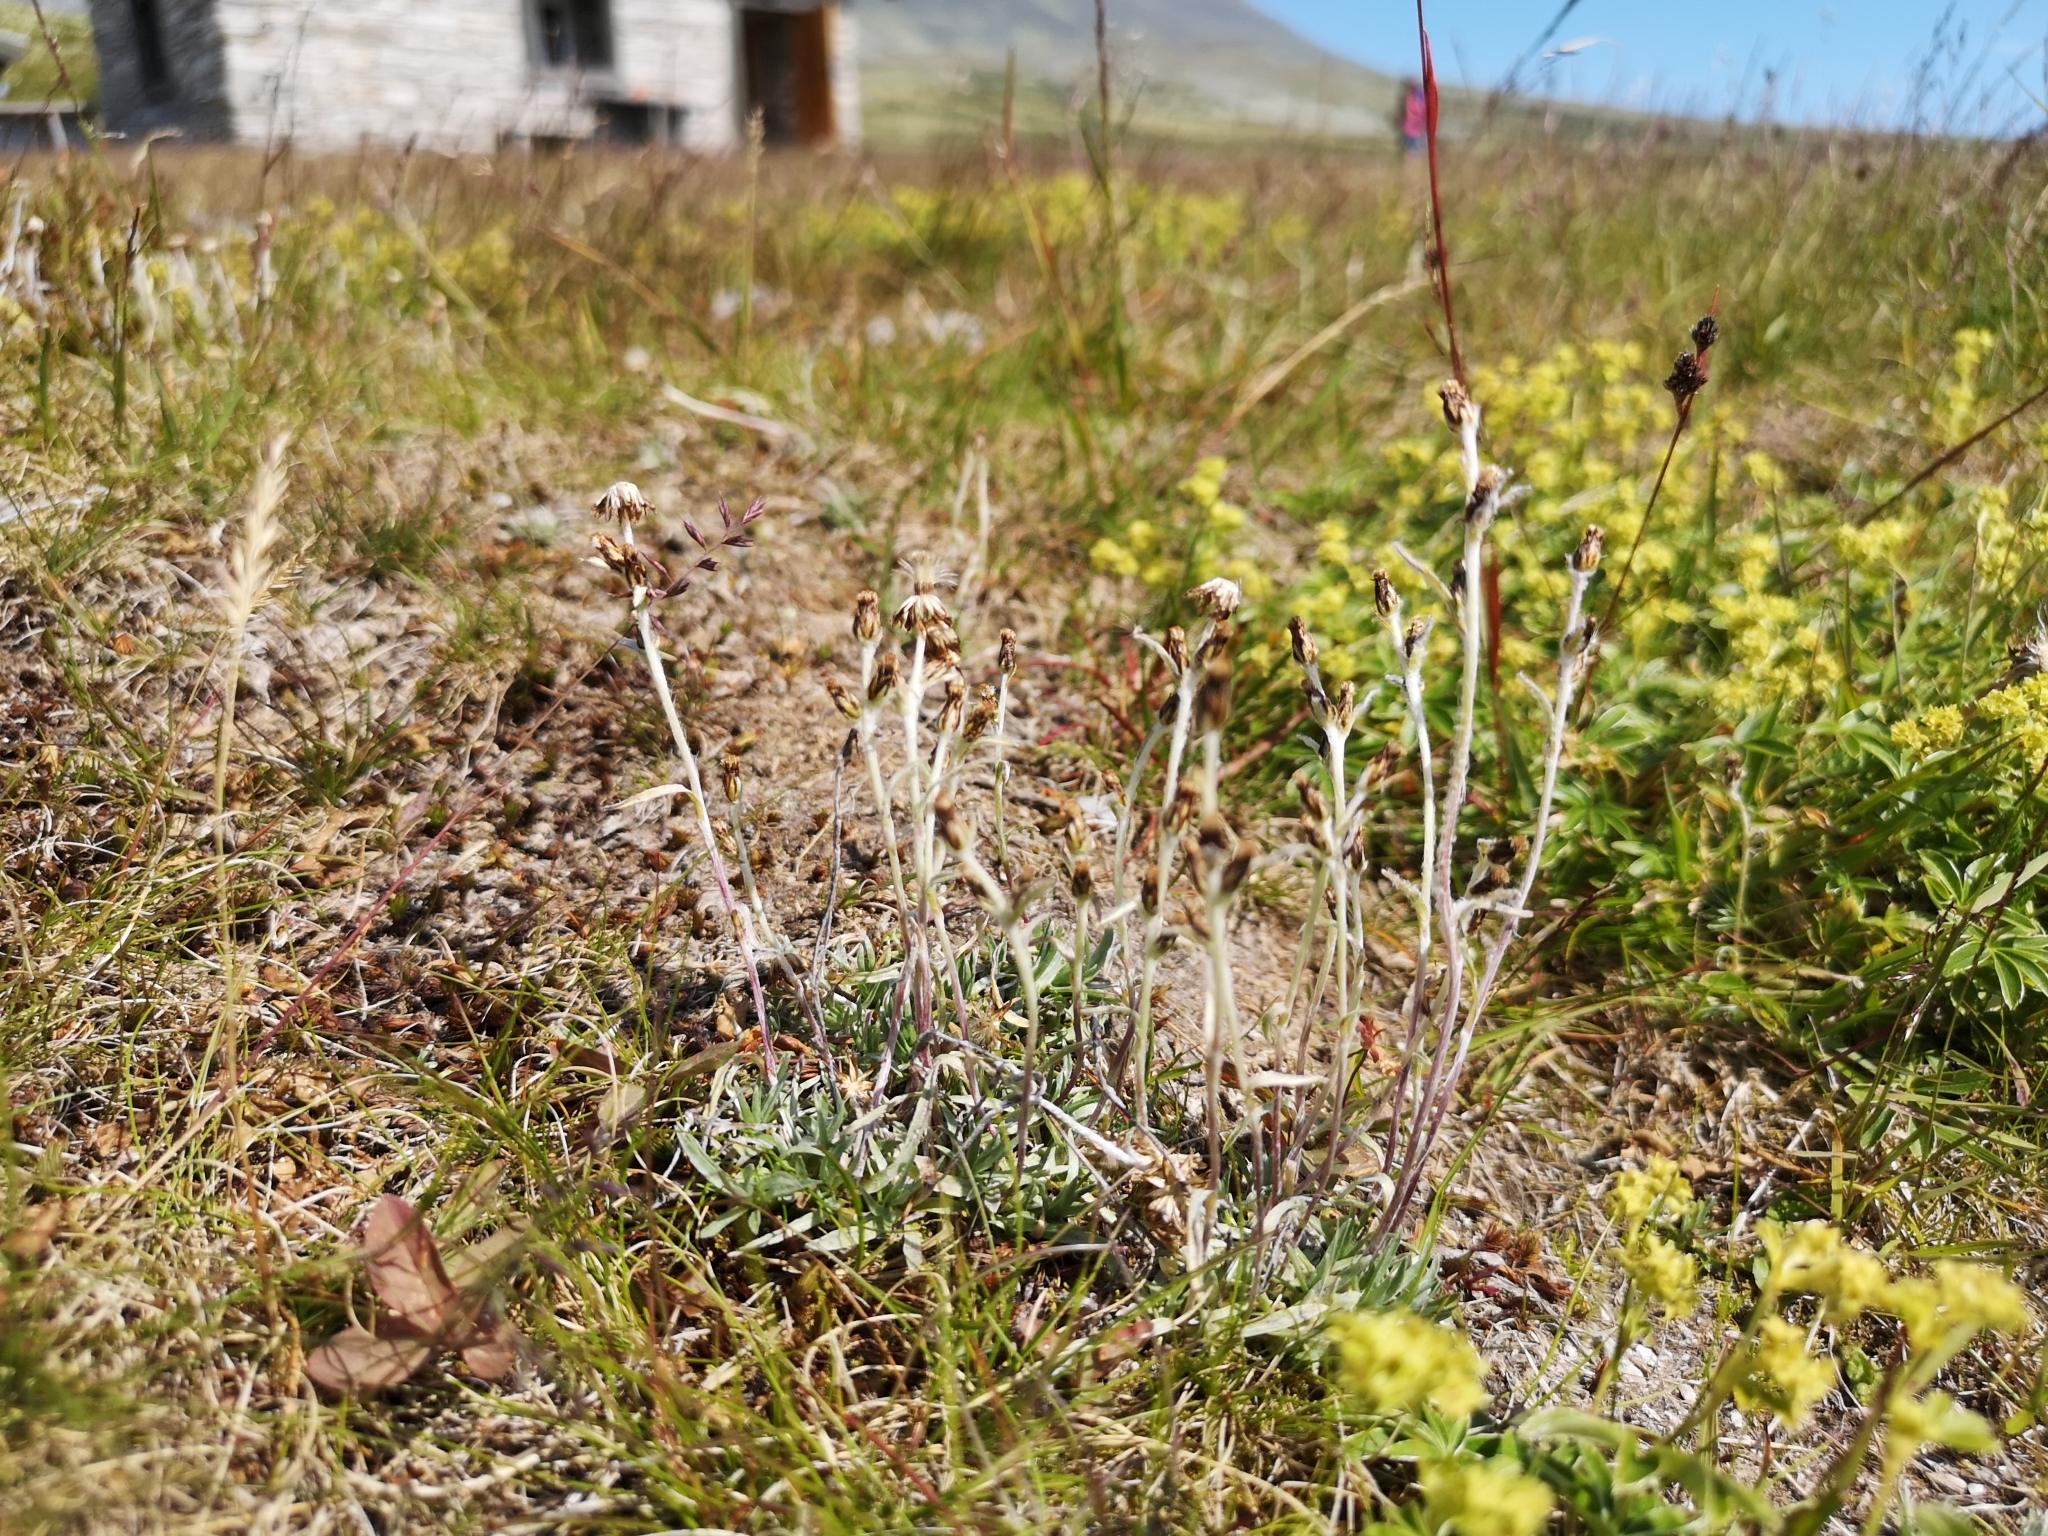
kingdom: Plantae
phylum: Tracheophyta
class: Magnoliopsida
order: Asterales
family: Asteraceae
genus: Omalotheca
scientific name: Omalotheca supina
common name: Alpine arctic-cudweed
